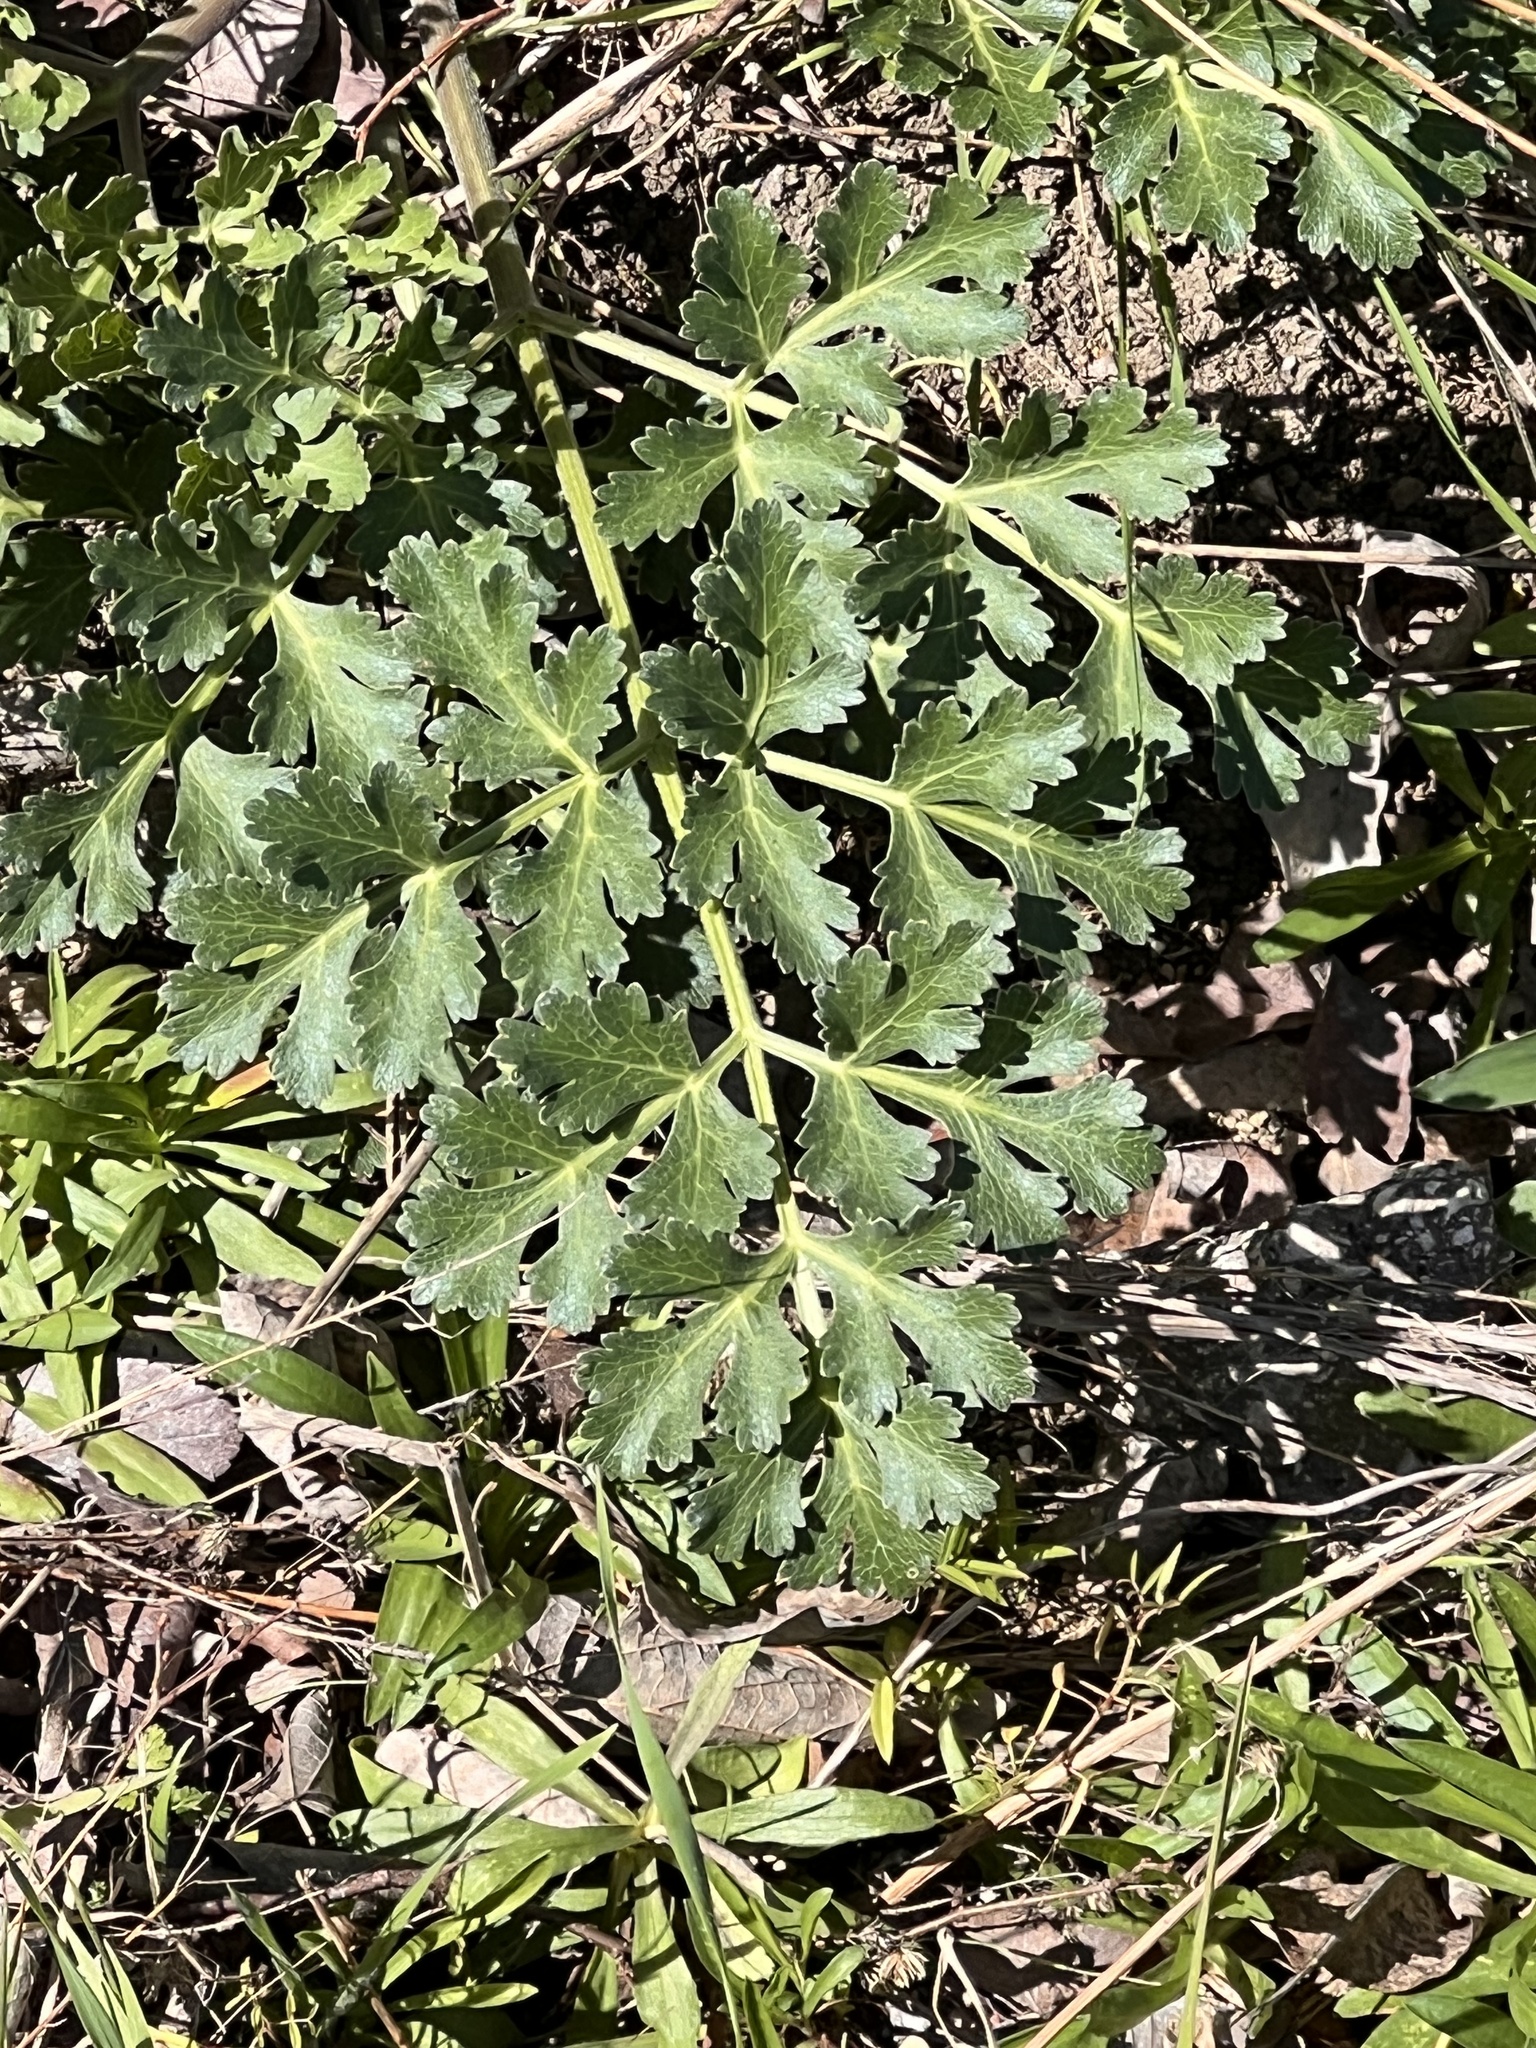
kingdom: Plantae
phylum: Tracheophyta
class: Magnoliopsida
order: Apiales
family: Apiaceae
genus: Polytaenia
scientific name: Polytaenia texana
